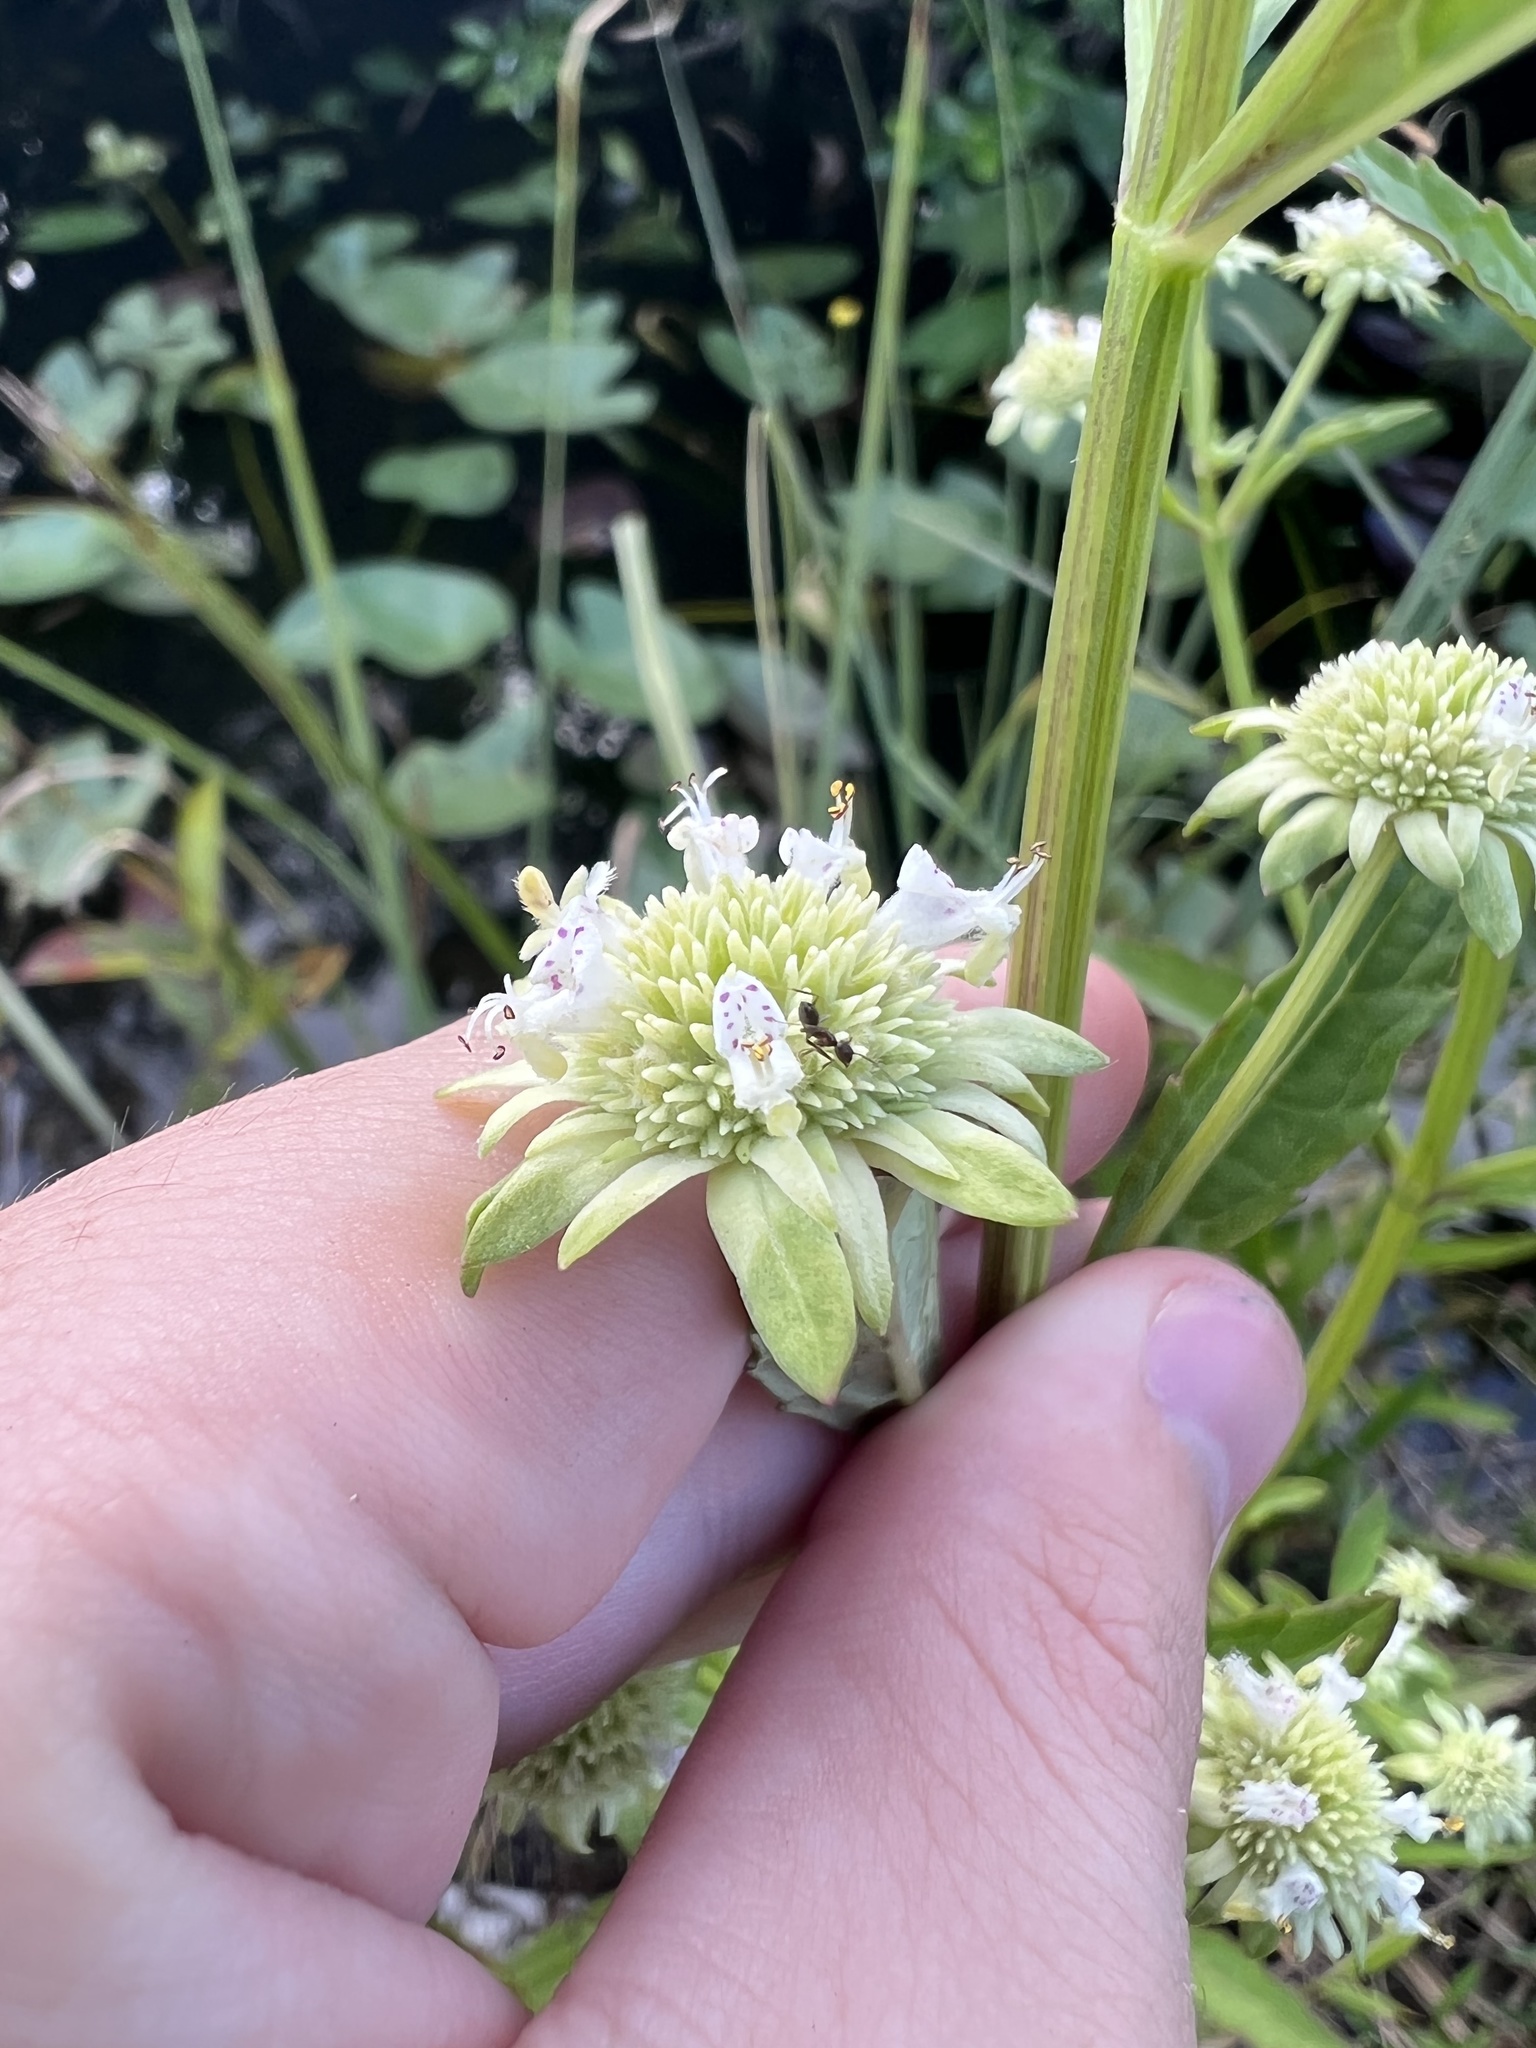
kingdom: Plantae
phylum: Tracheophyta
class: Magnoliopsida
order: Lamiales
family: Lamiaceae
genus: Hyptis
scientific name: Hyptis alata
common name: Cluster bush-mint
